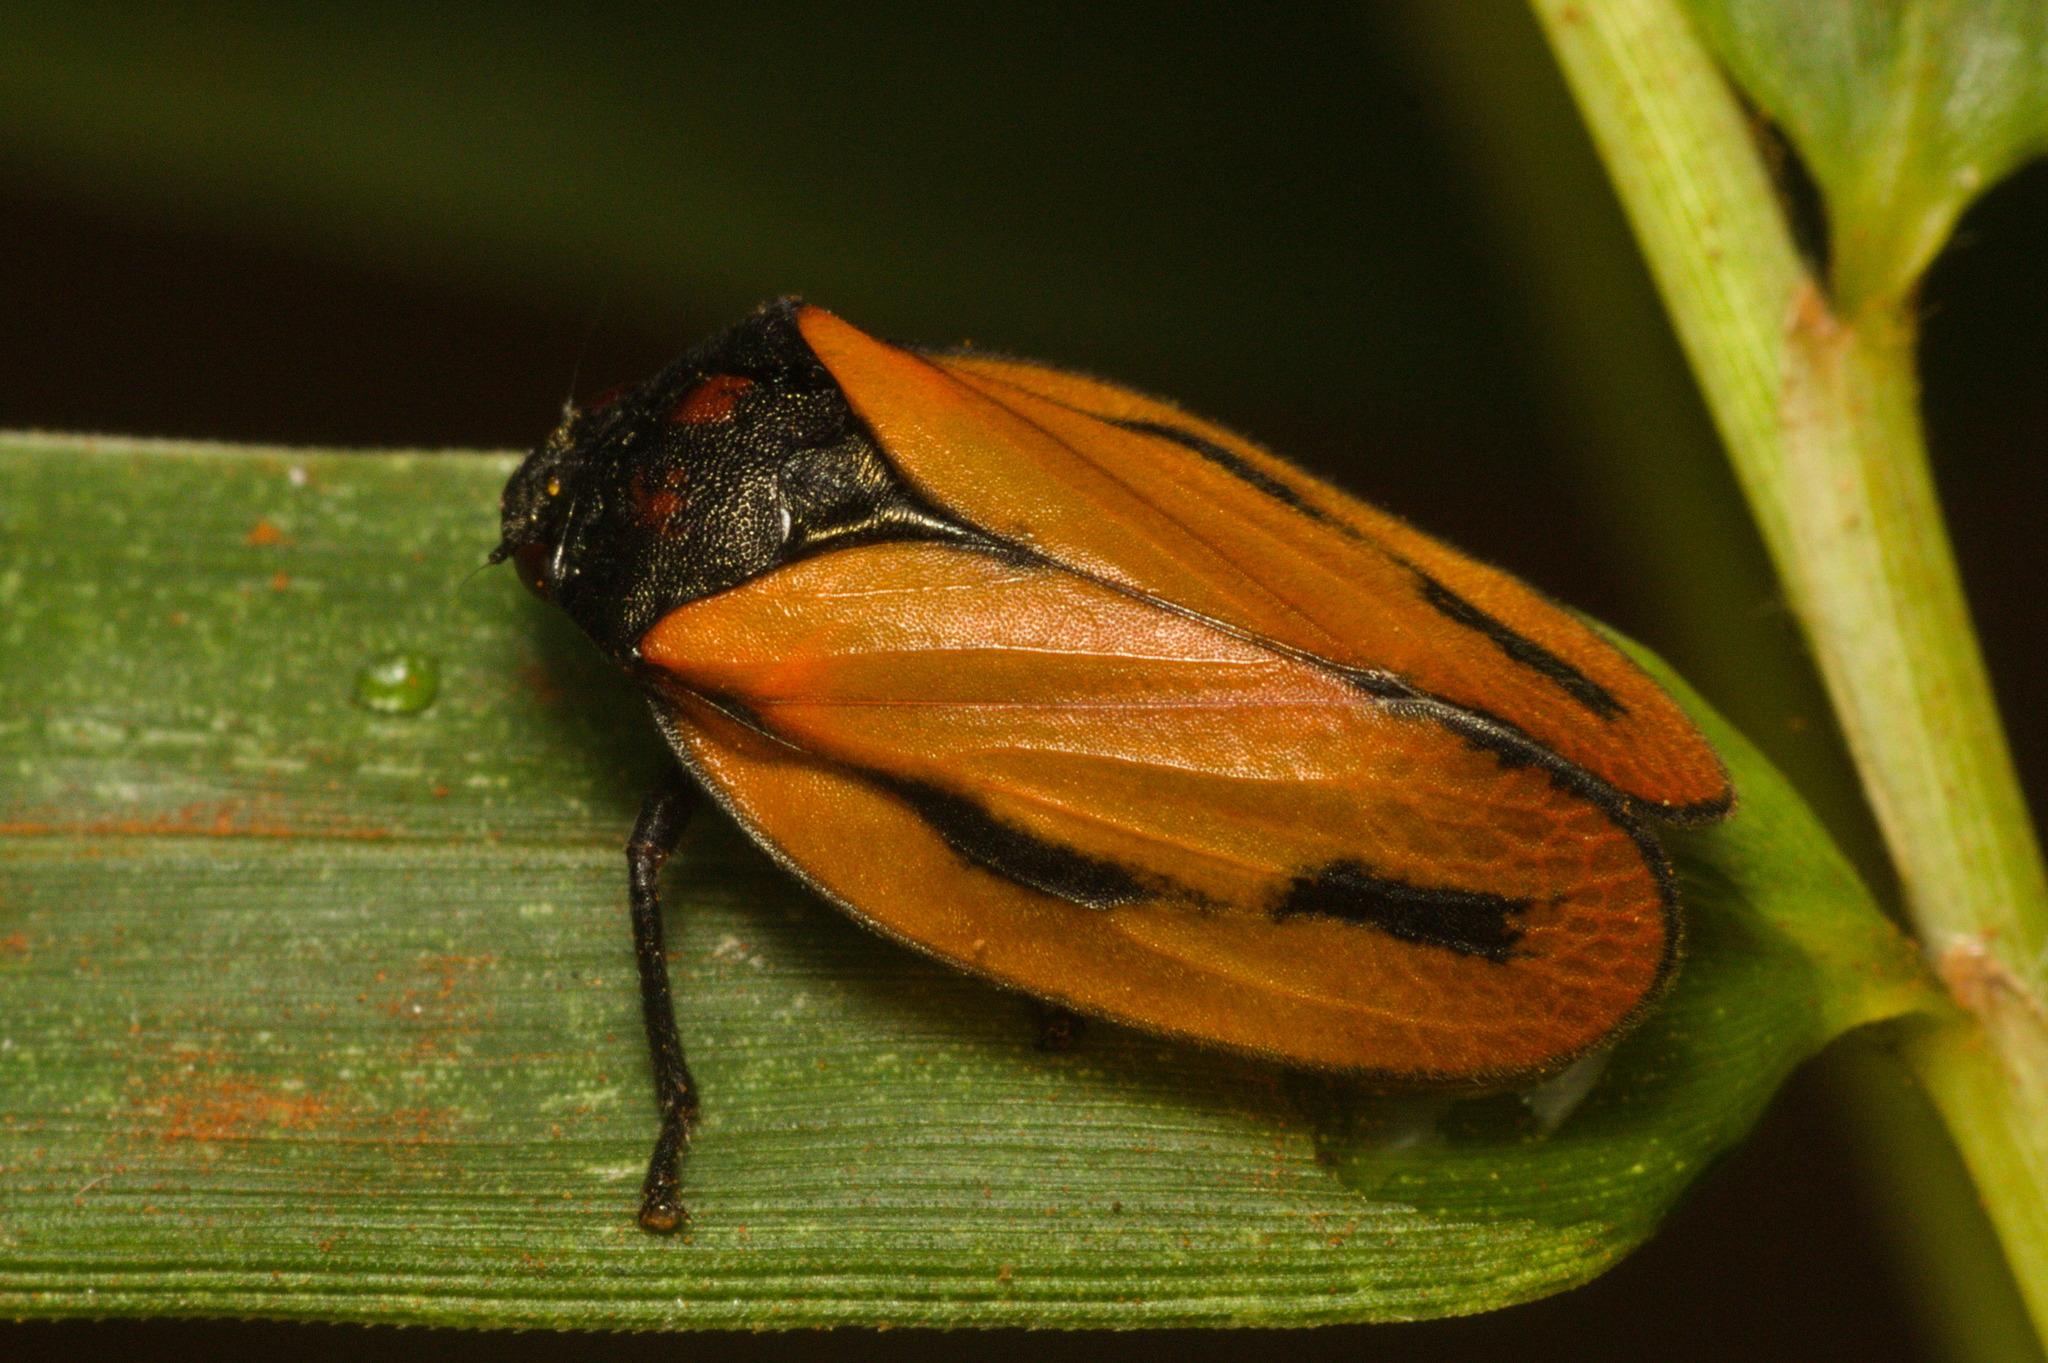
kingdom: Animalia
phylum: Arthropoda
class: Insecta
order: Hemiptera
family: Cercopidae
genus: Mahanarva
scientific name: Mahanarva paraguayana
